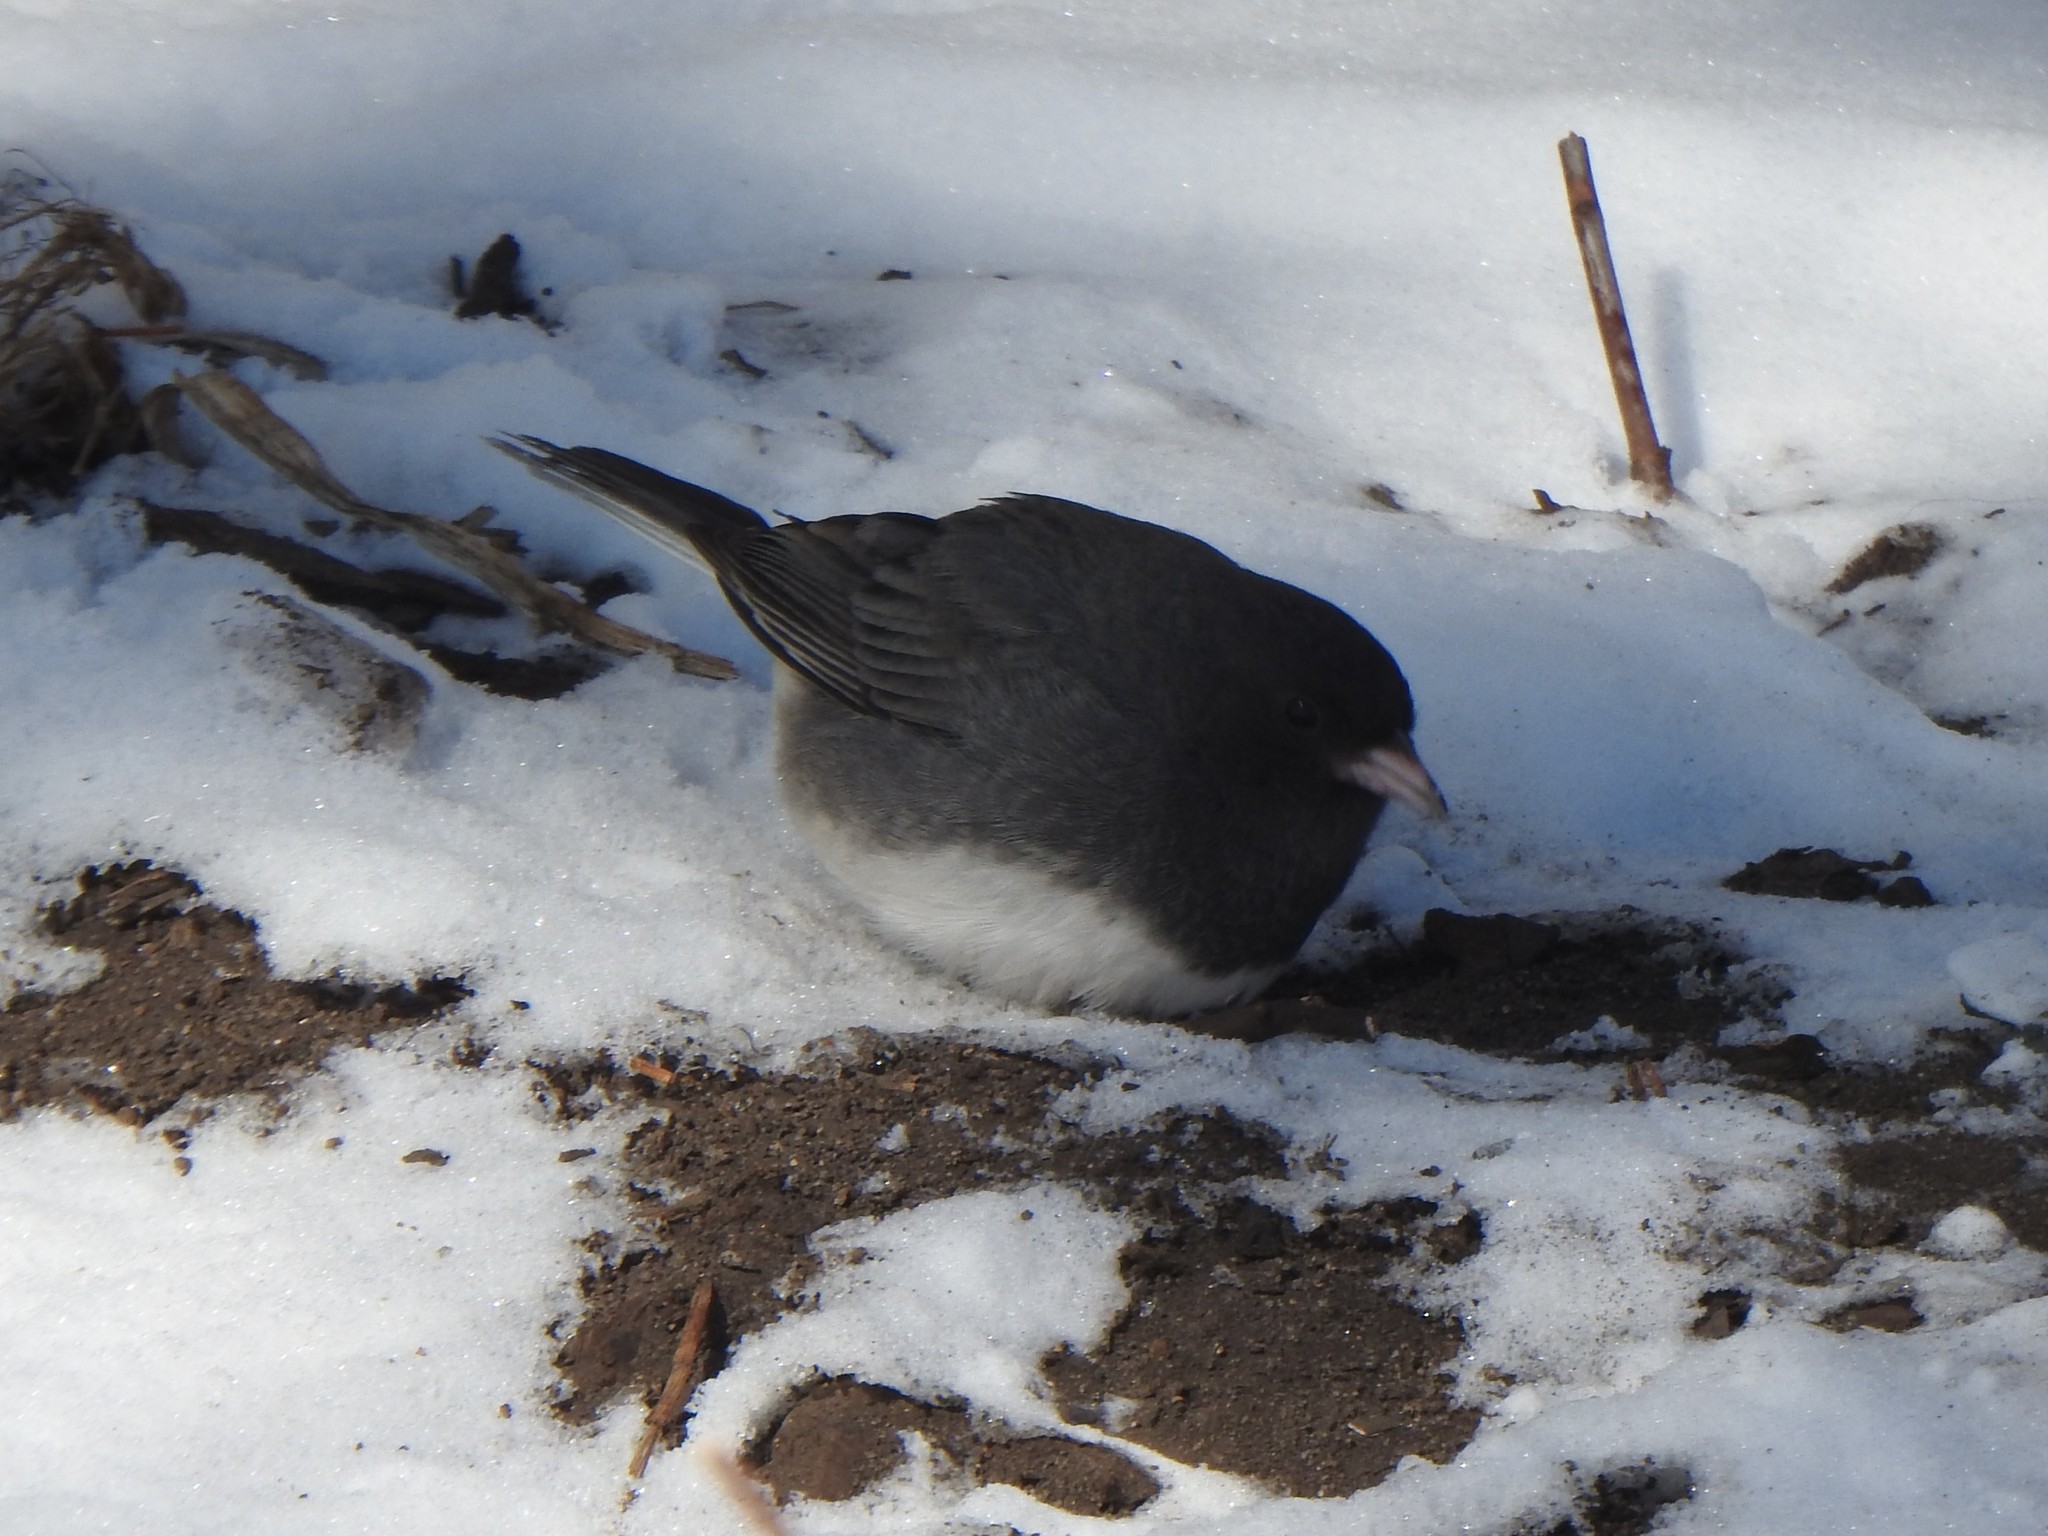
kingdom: Animalia
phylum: Chordata
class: Aves
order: Passeriformes
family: Passerellidae
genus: Junco
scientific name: Junco hyemalis
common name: Dark-eyed junco
